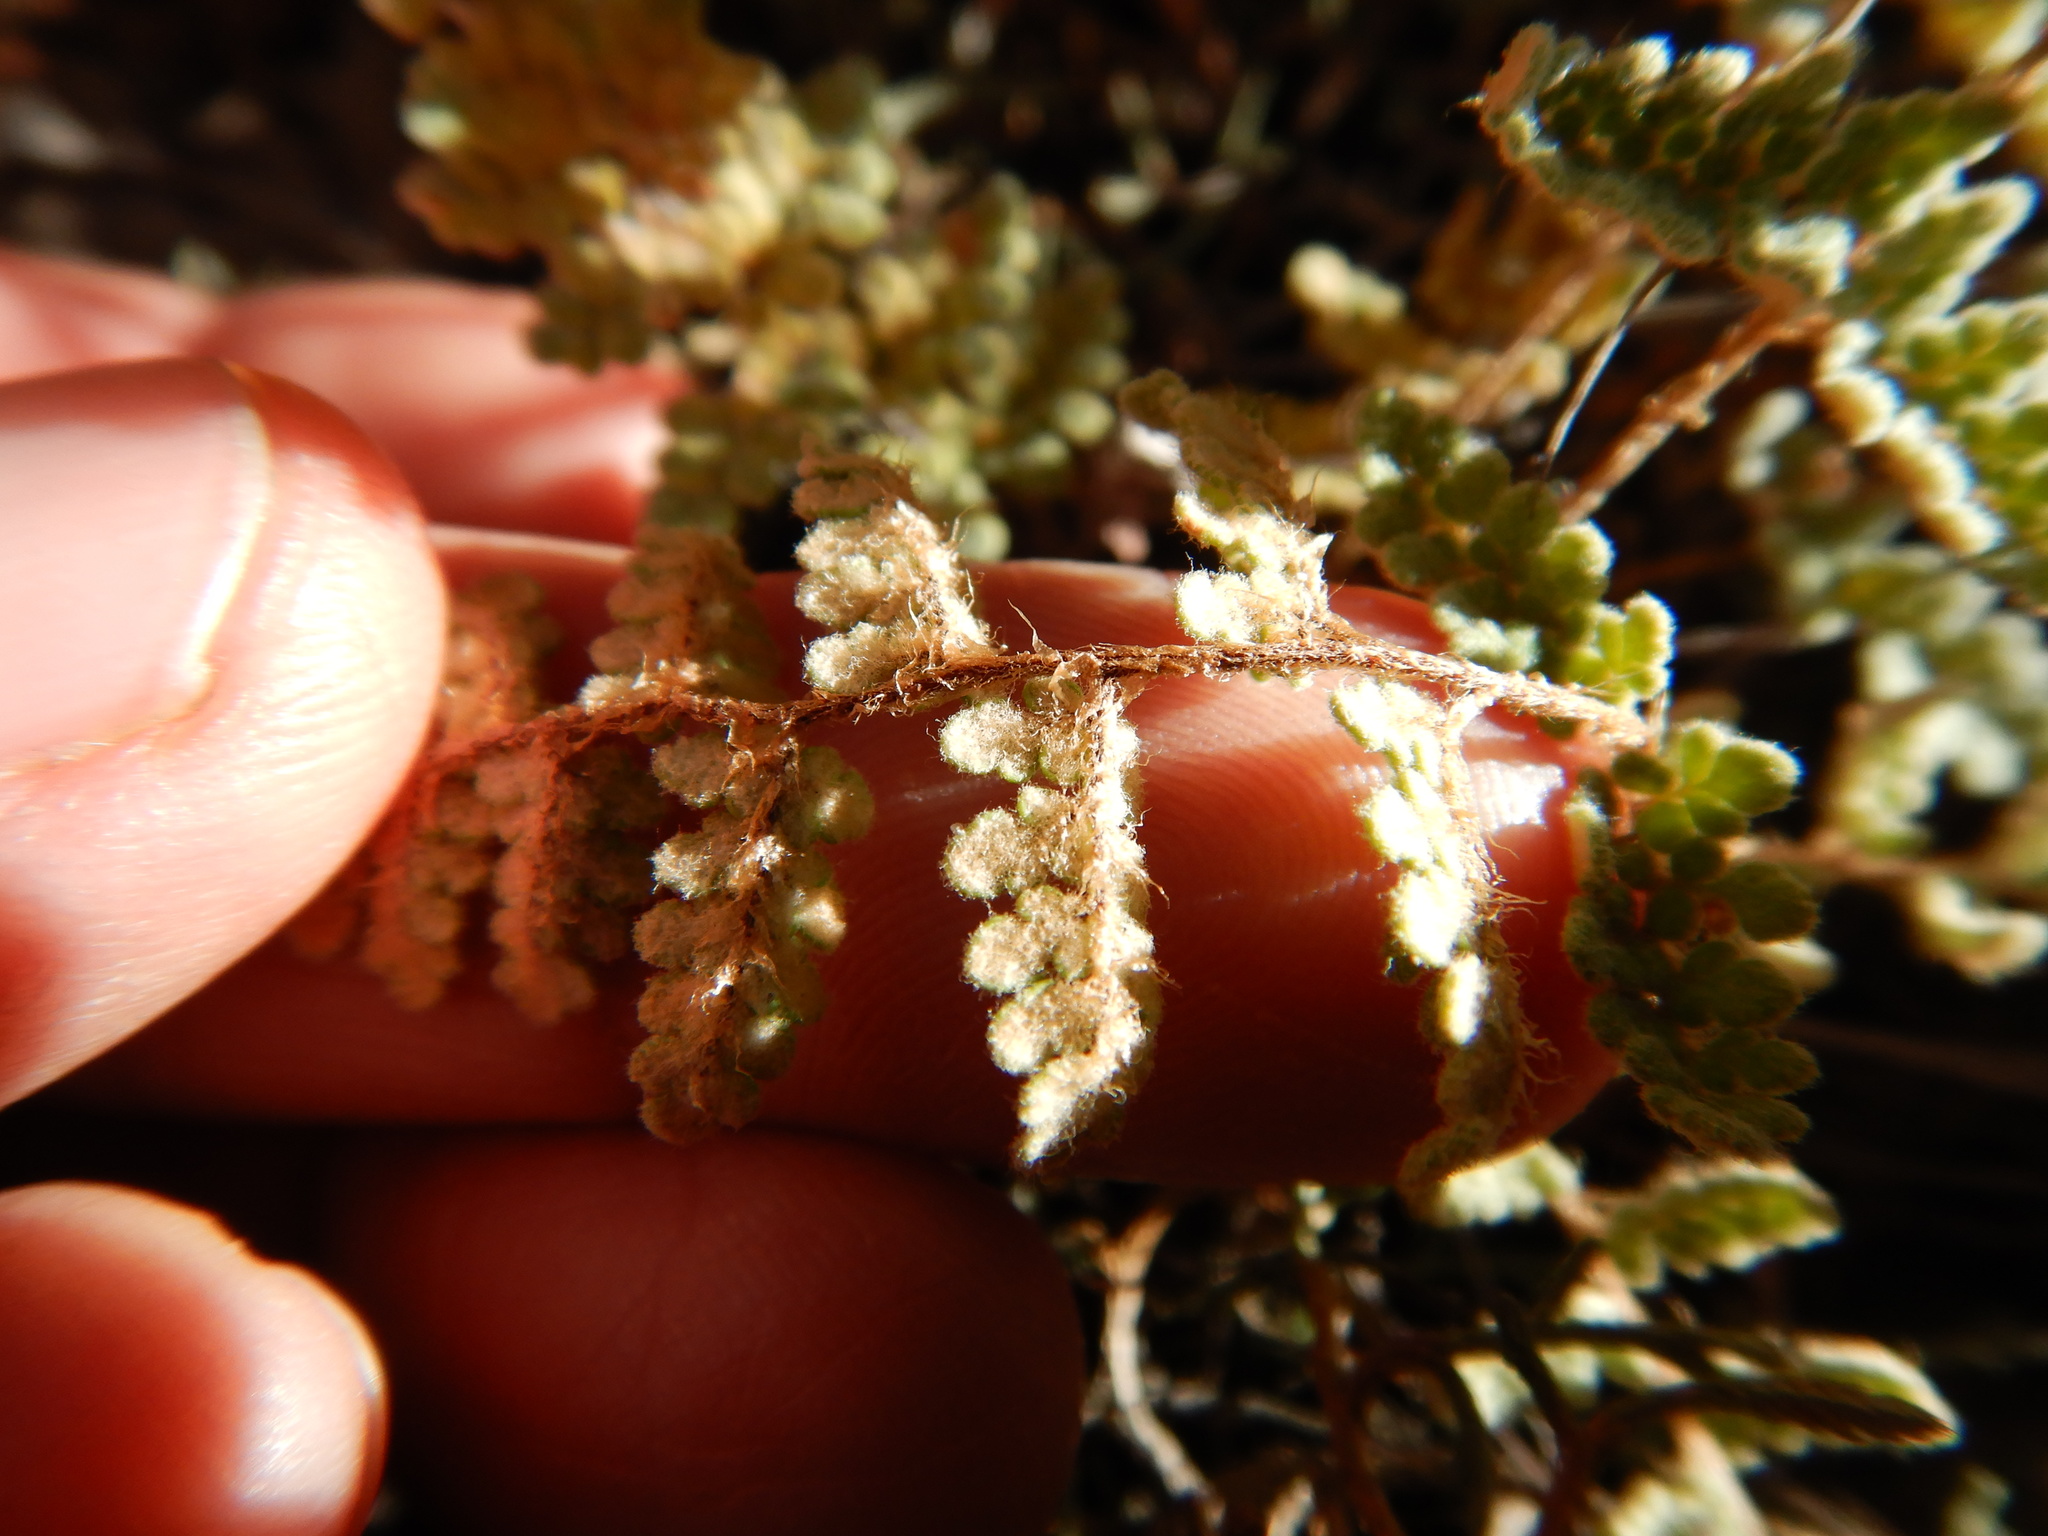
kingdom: Plantae
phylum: Tracheophyta
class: Polypodiopsida
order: Polypodiales
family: Pteridaceae
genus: Myriopteris
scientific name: Myriopteris rufa
